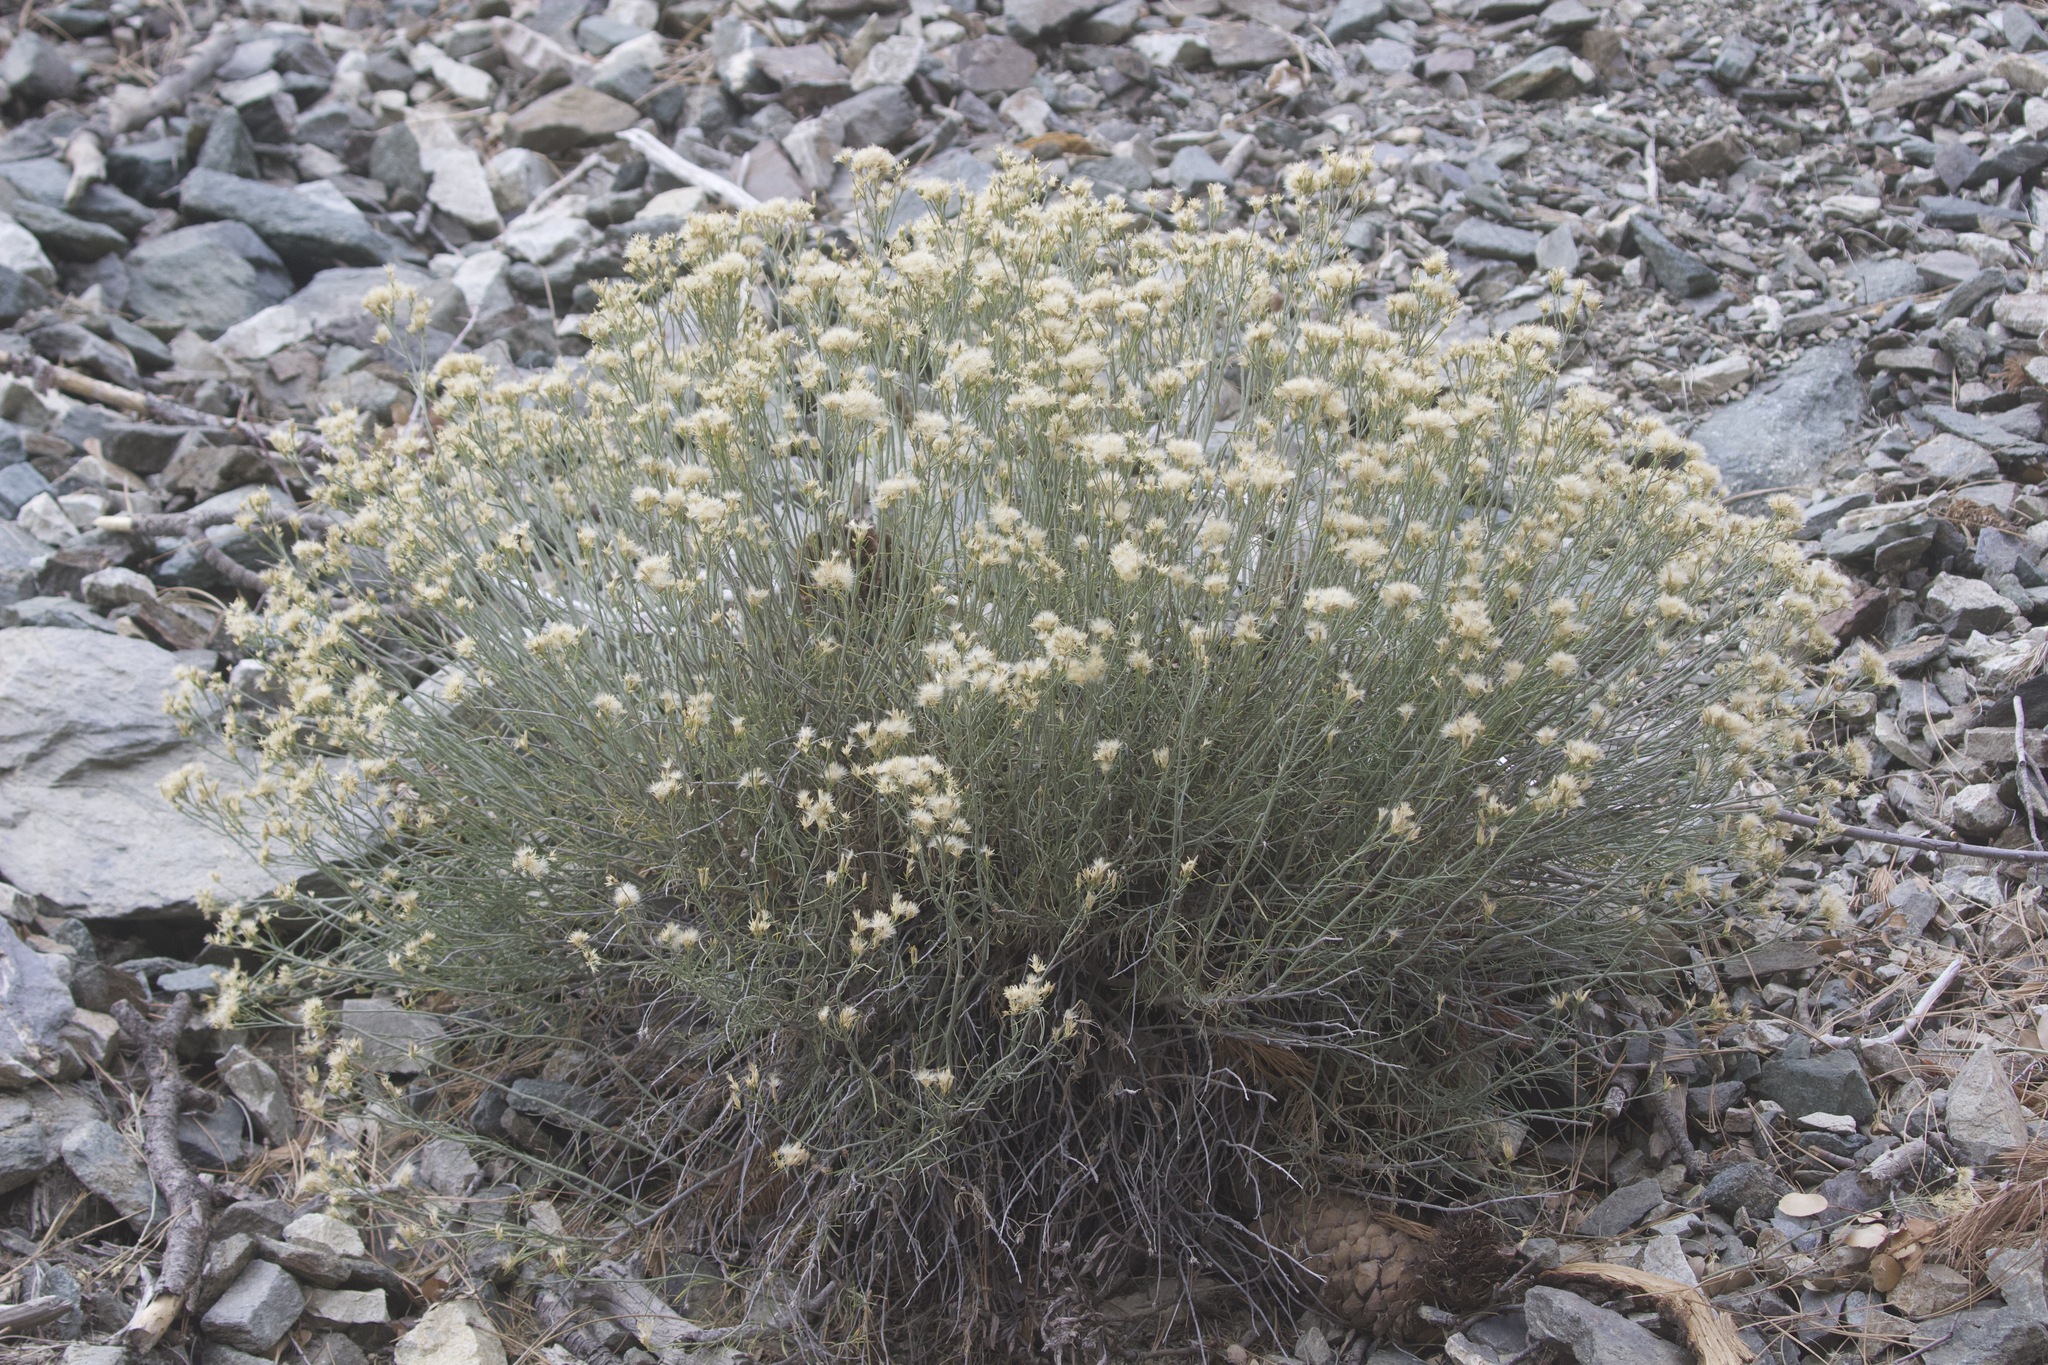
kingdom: Plantae
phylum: Tracheophyta
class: Magnoliopsida
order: Asterales
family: Asteraceae
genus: Ericameria
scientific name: Ericameria nauseosa
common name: Rubber rabbitbrush
